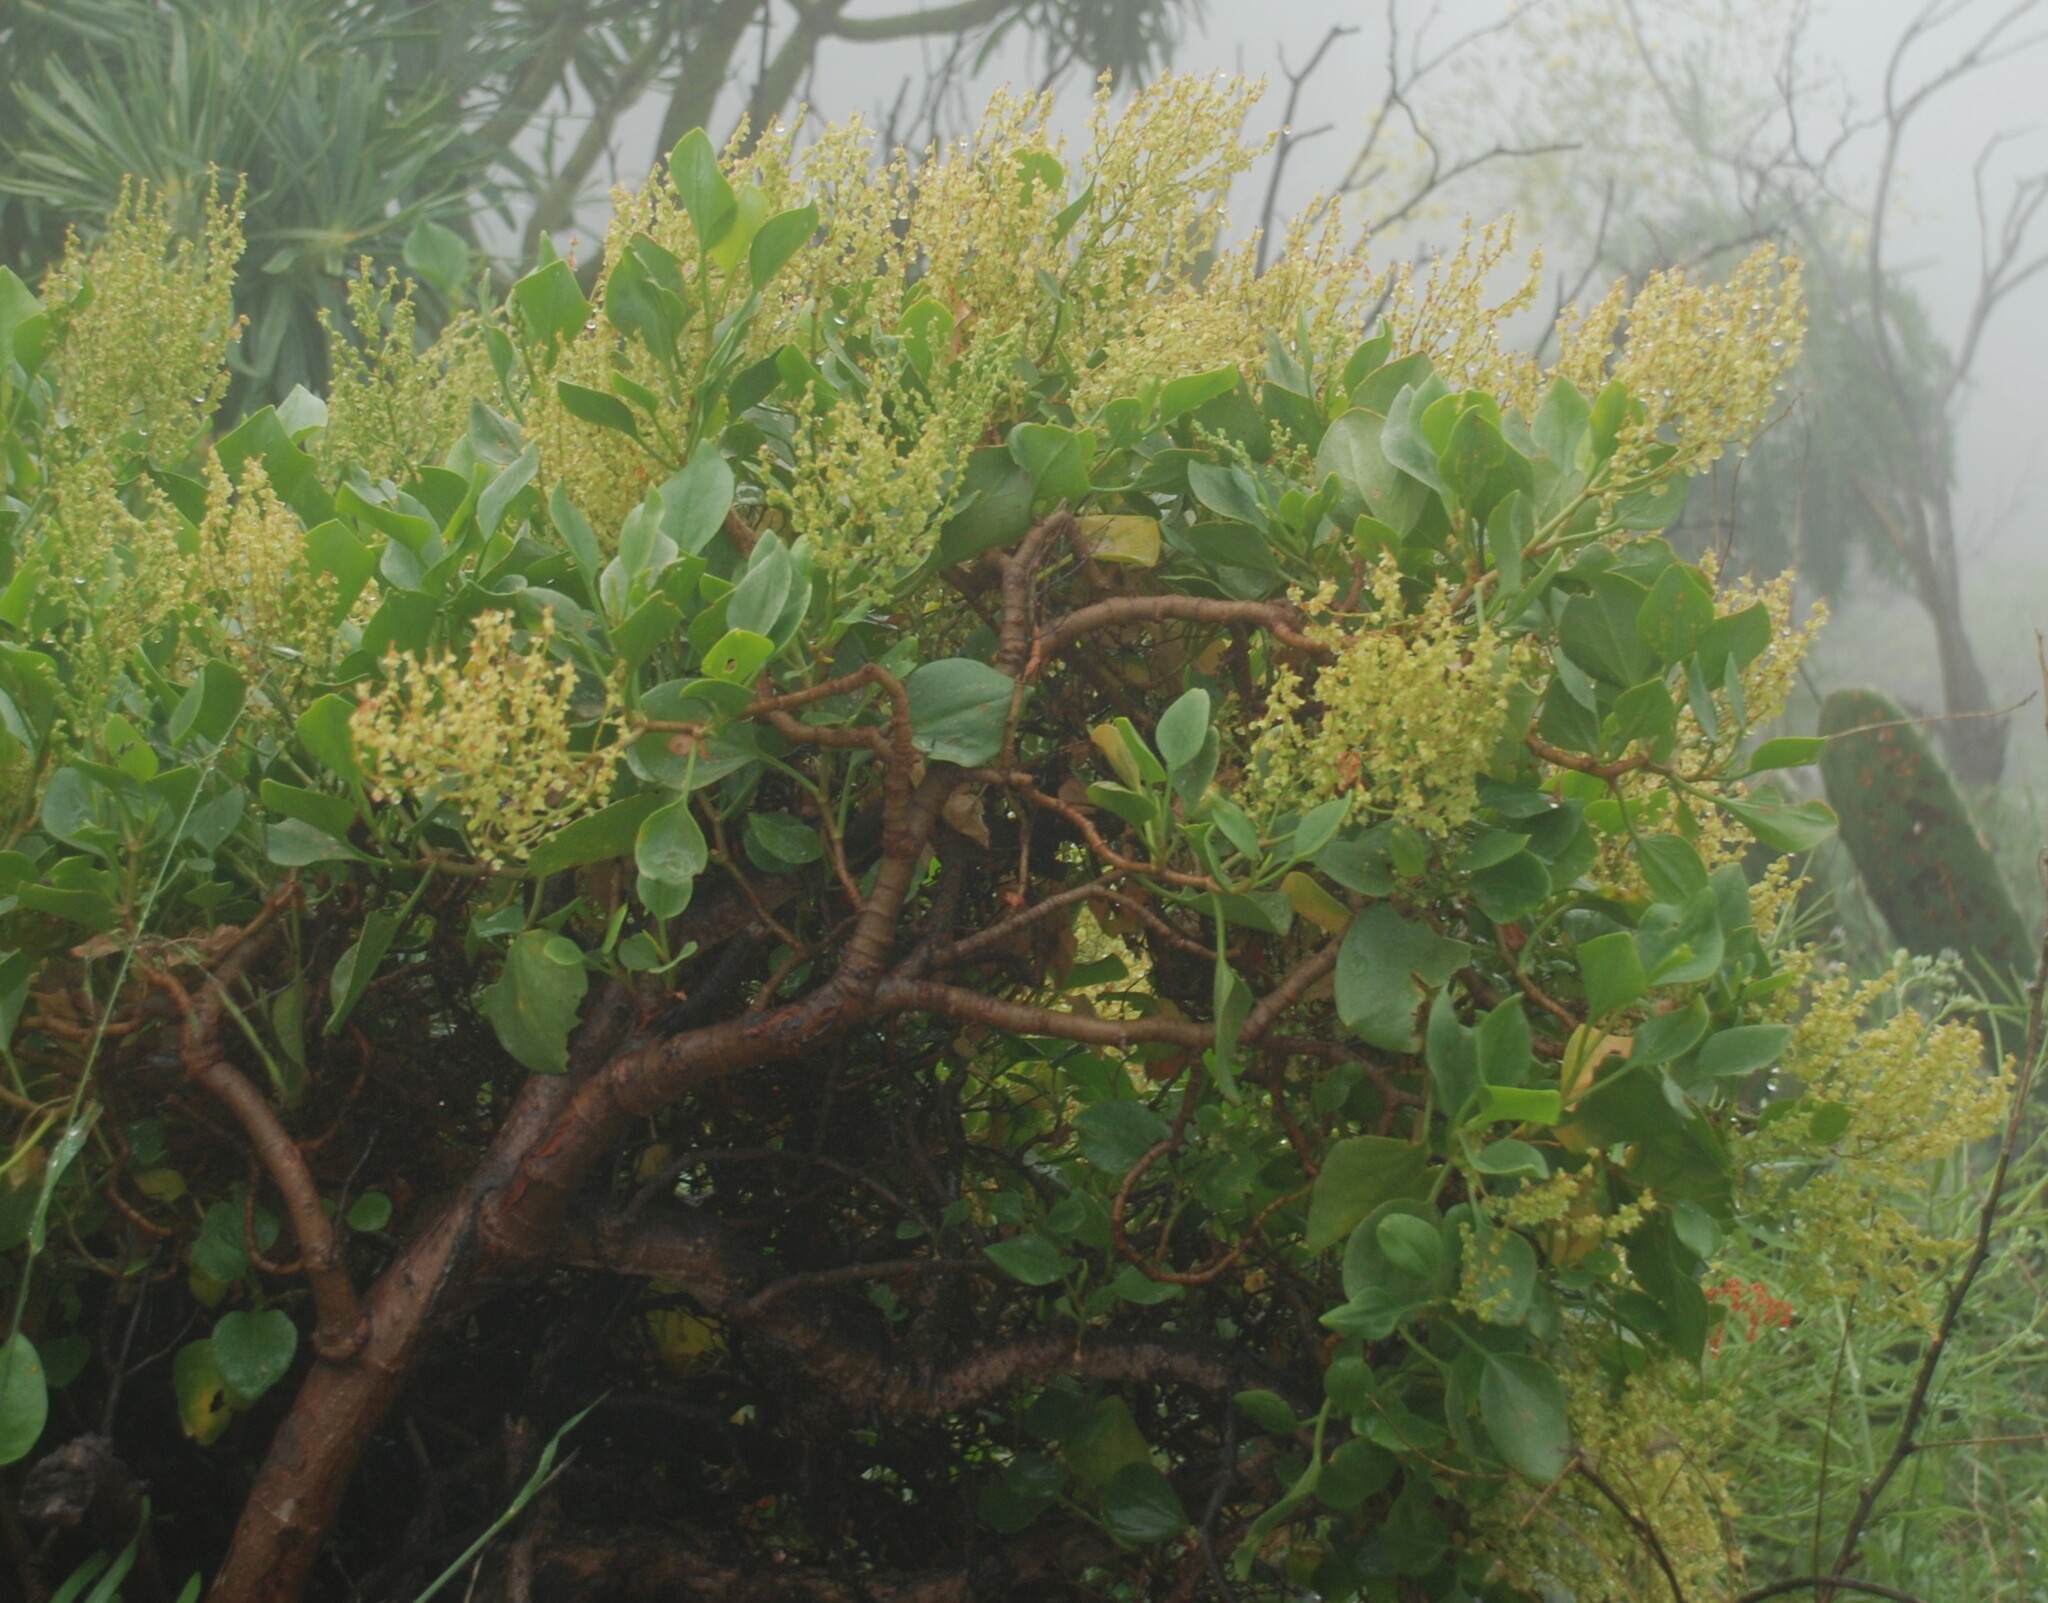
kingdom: Plantae
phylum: Tracheophyta
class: Magnoliopsida
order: Caryophyllales
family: Polygonaceae
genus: Rumex
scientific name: Rumex lunaria
